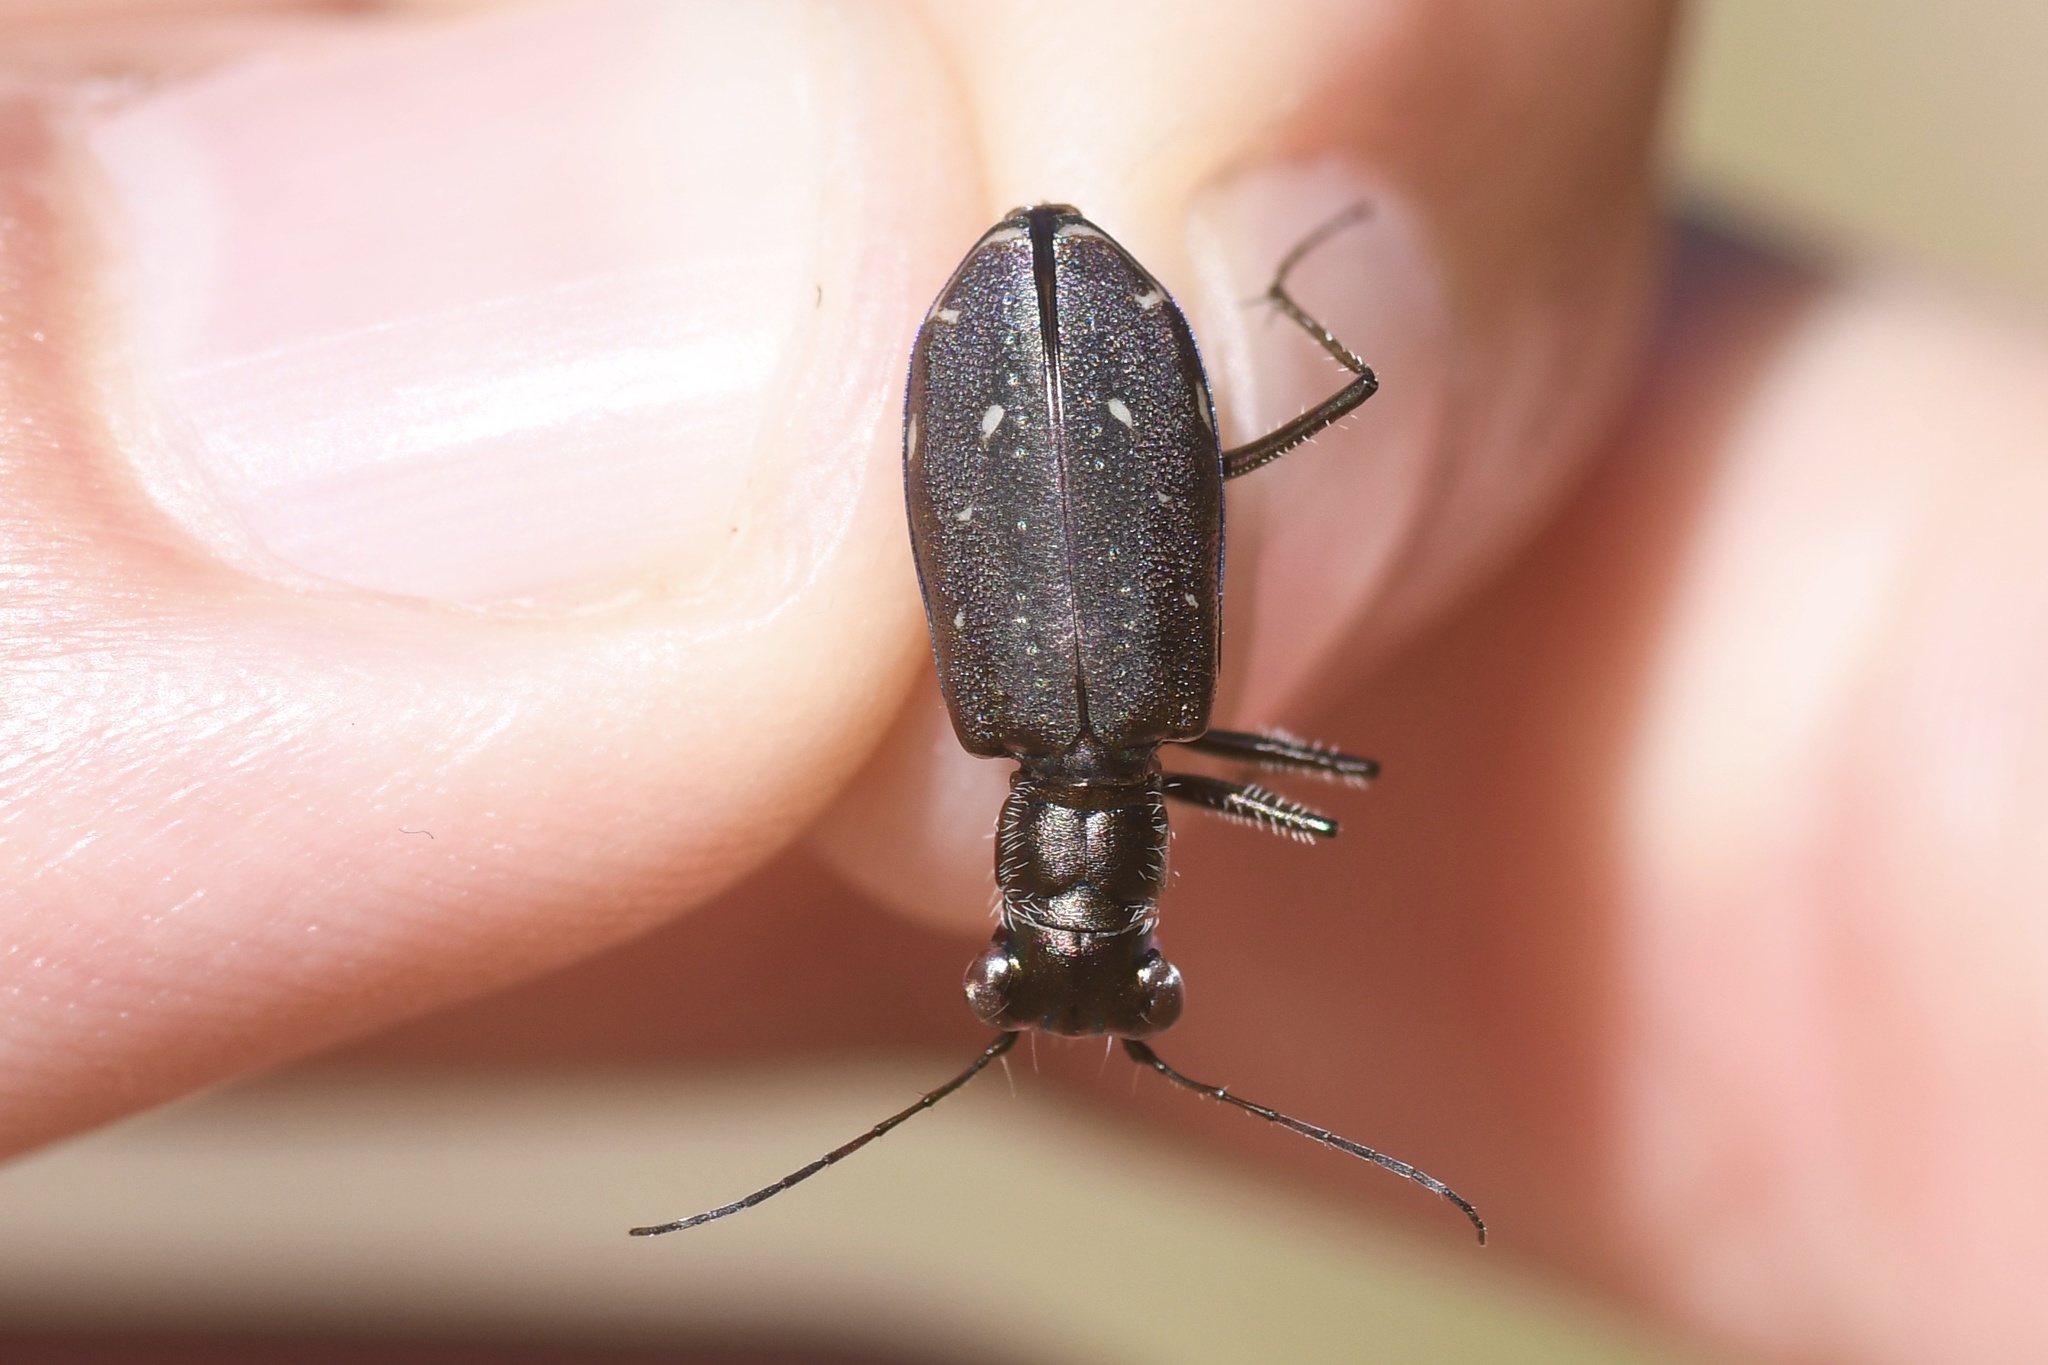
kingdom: Animalia
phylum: Arthropoda
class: Insecta
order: Coleoptera
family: Carabidae
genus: Cicindela
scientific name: Cicindela punctulata
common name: Punctured tiger beetle
